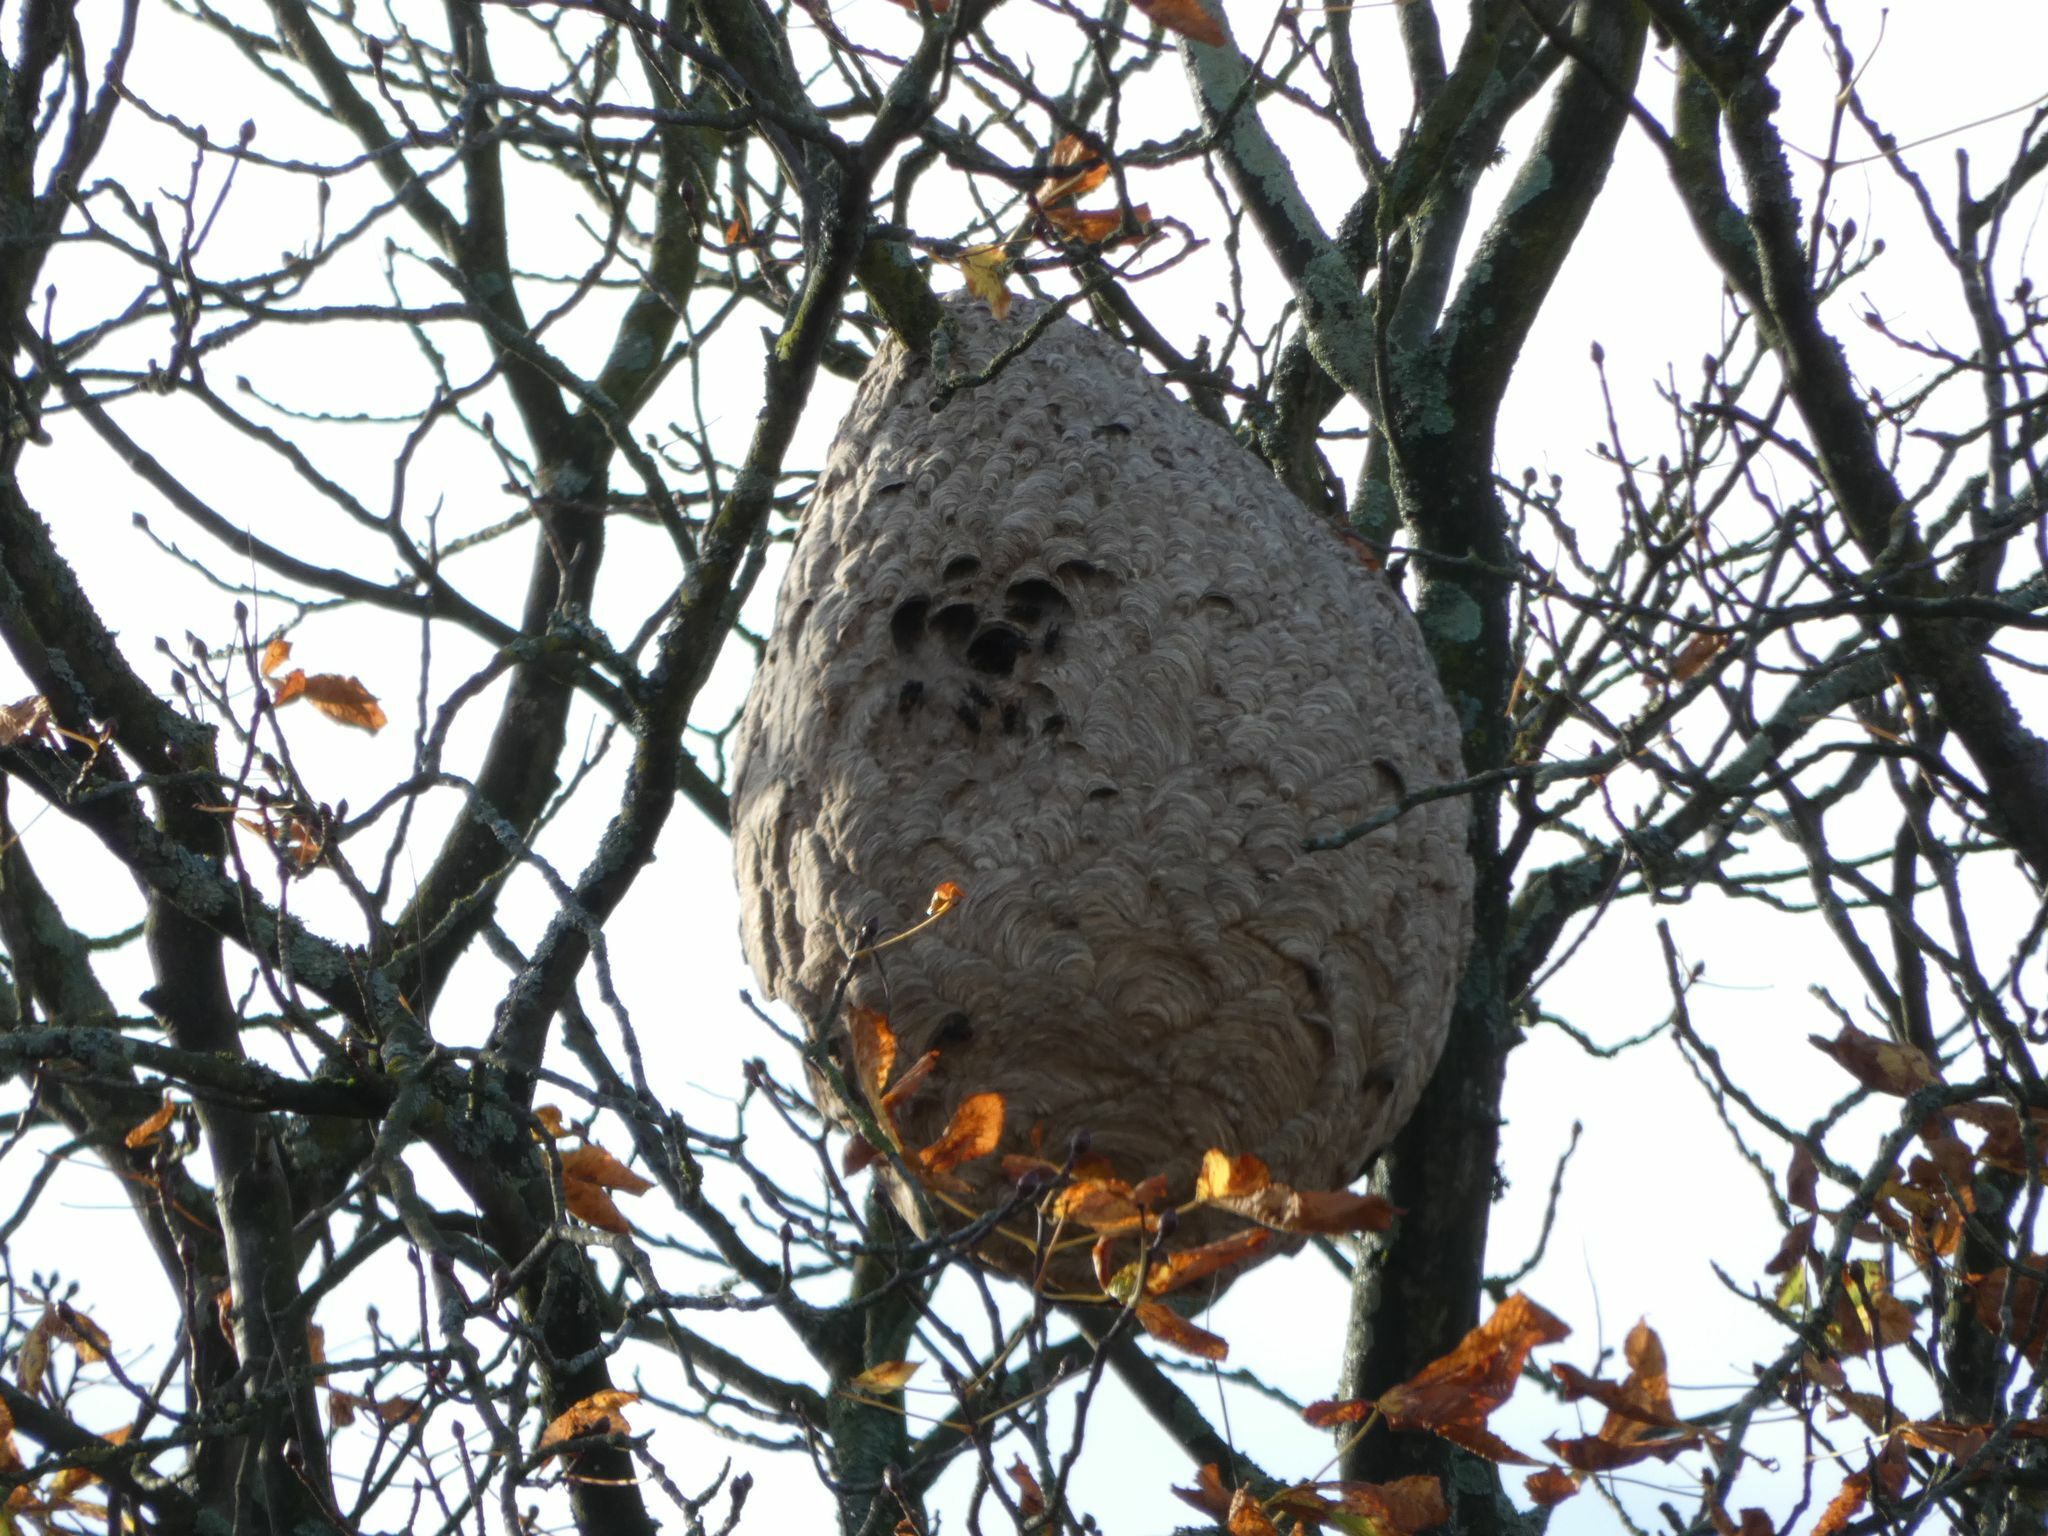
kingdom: Animalia
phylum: Arthropoda
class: Insecta
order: Hymenoptera
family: Vespidae
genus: Vespa
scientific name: Vespa velutina
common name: Asian hornet
